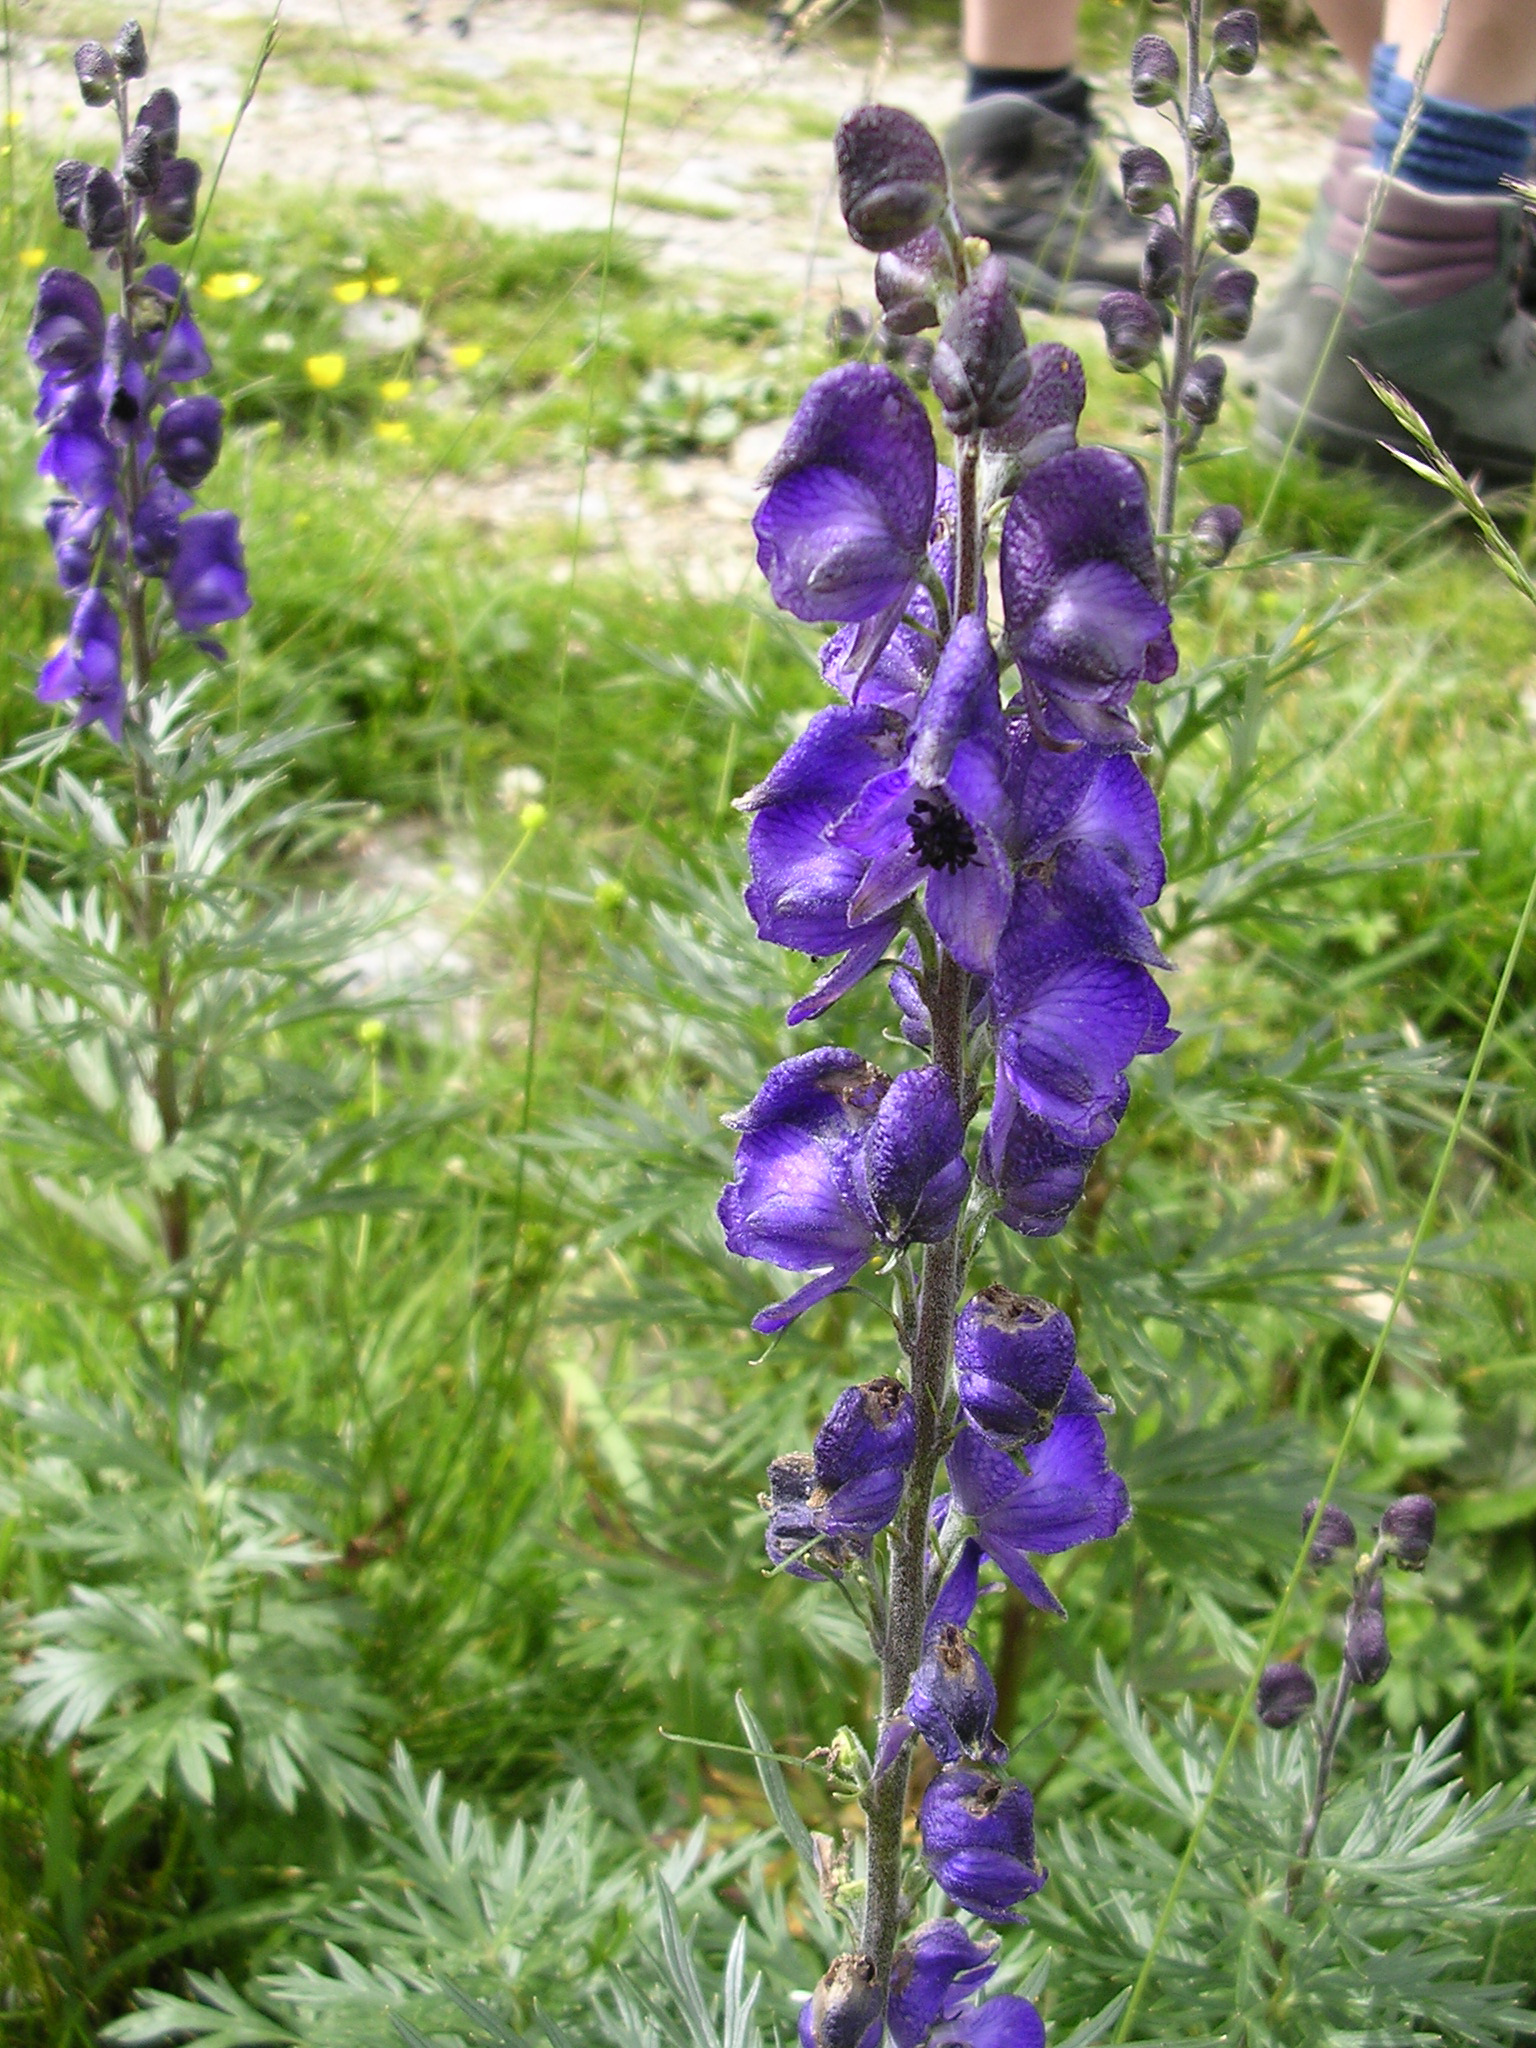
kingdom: Plantae
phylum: Tracheophyta
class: Magnoliopsida
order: Ranunculales
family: Ranunculaceae
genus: Aconitum
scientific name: Aconitum napellus
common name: Garden monkshood
